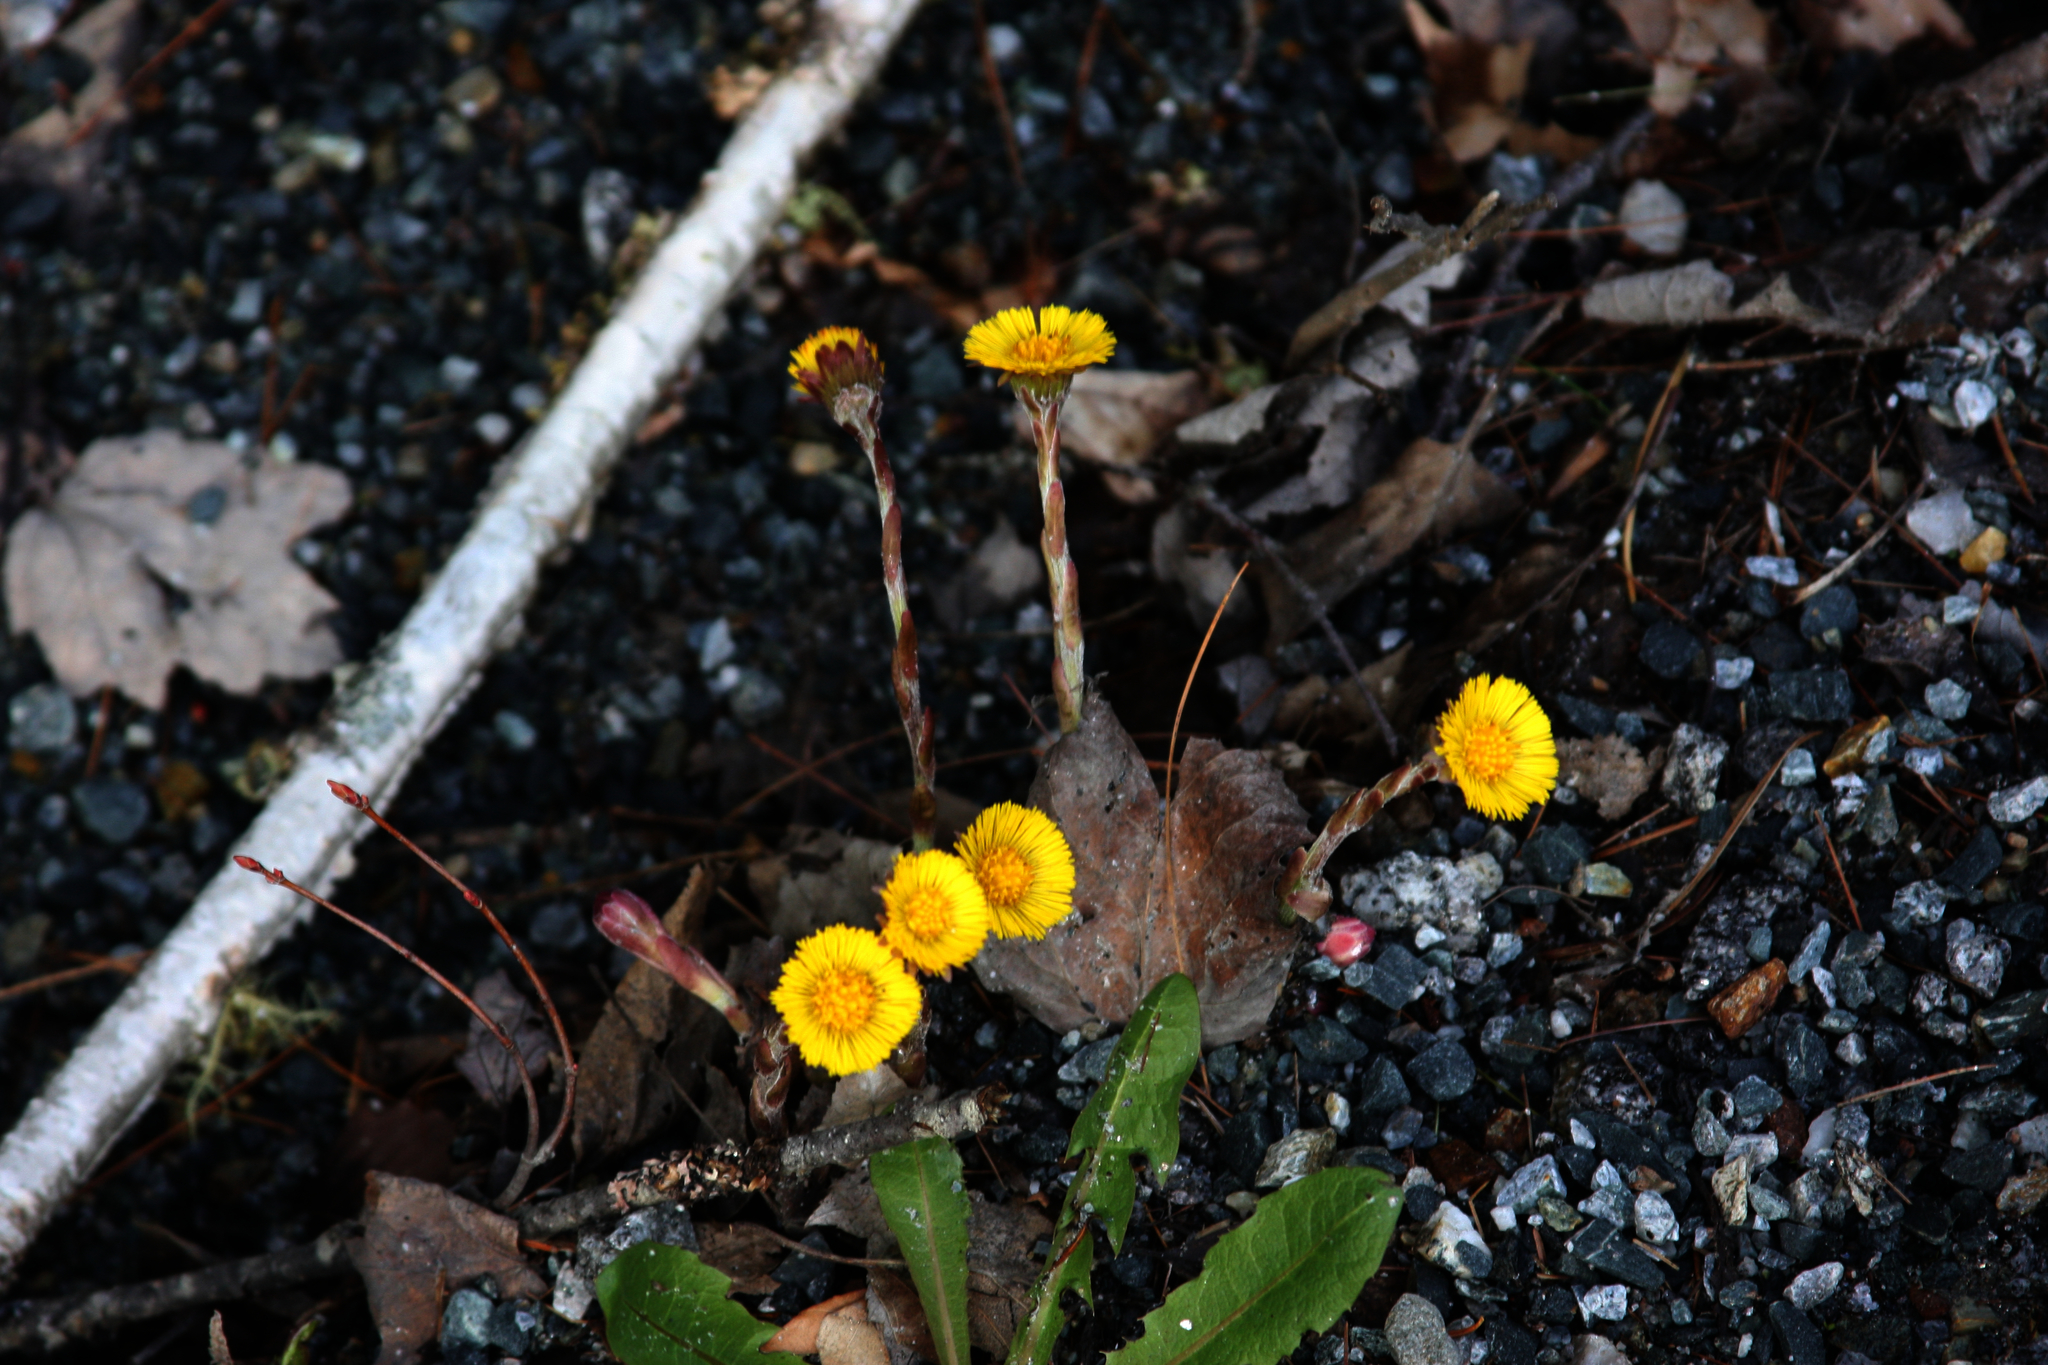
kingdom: Plantae
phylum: Tracheophyta
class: Magnoliopsida
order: Asterales
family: Asteraceae
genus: Tussilago
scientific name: Tussilago farfara
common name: Coltsfoot
